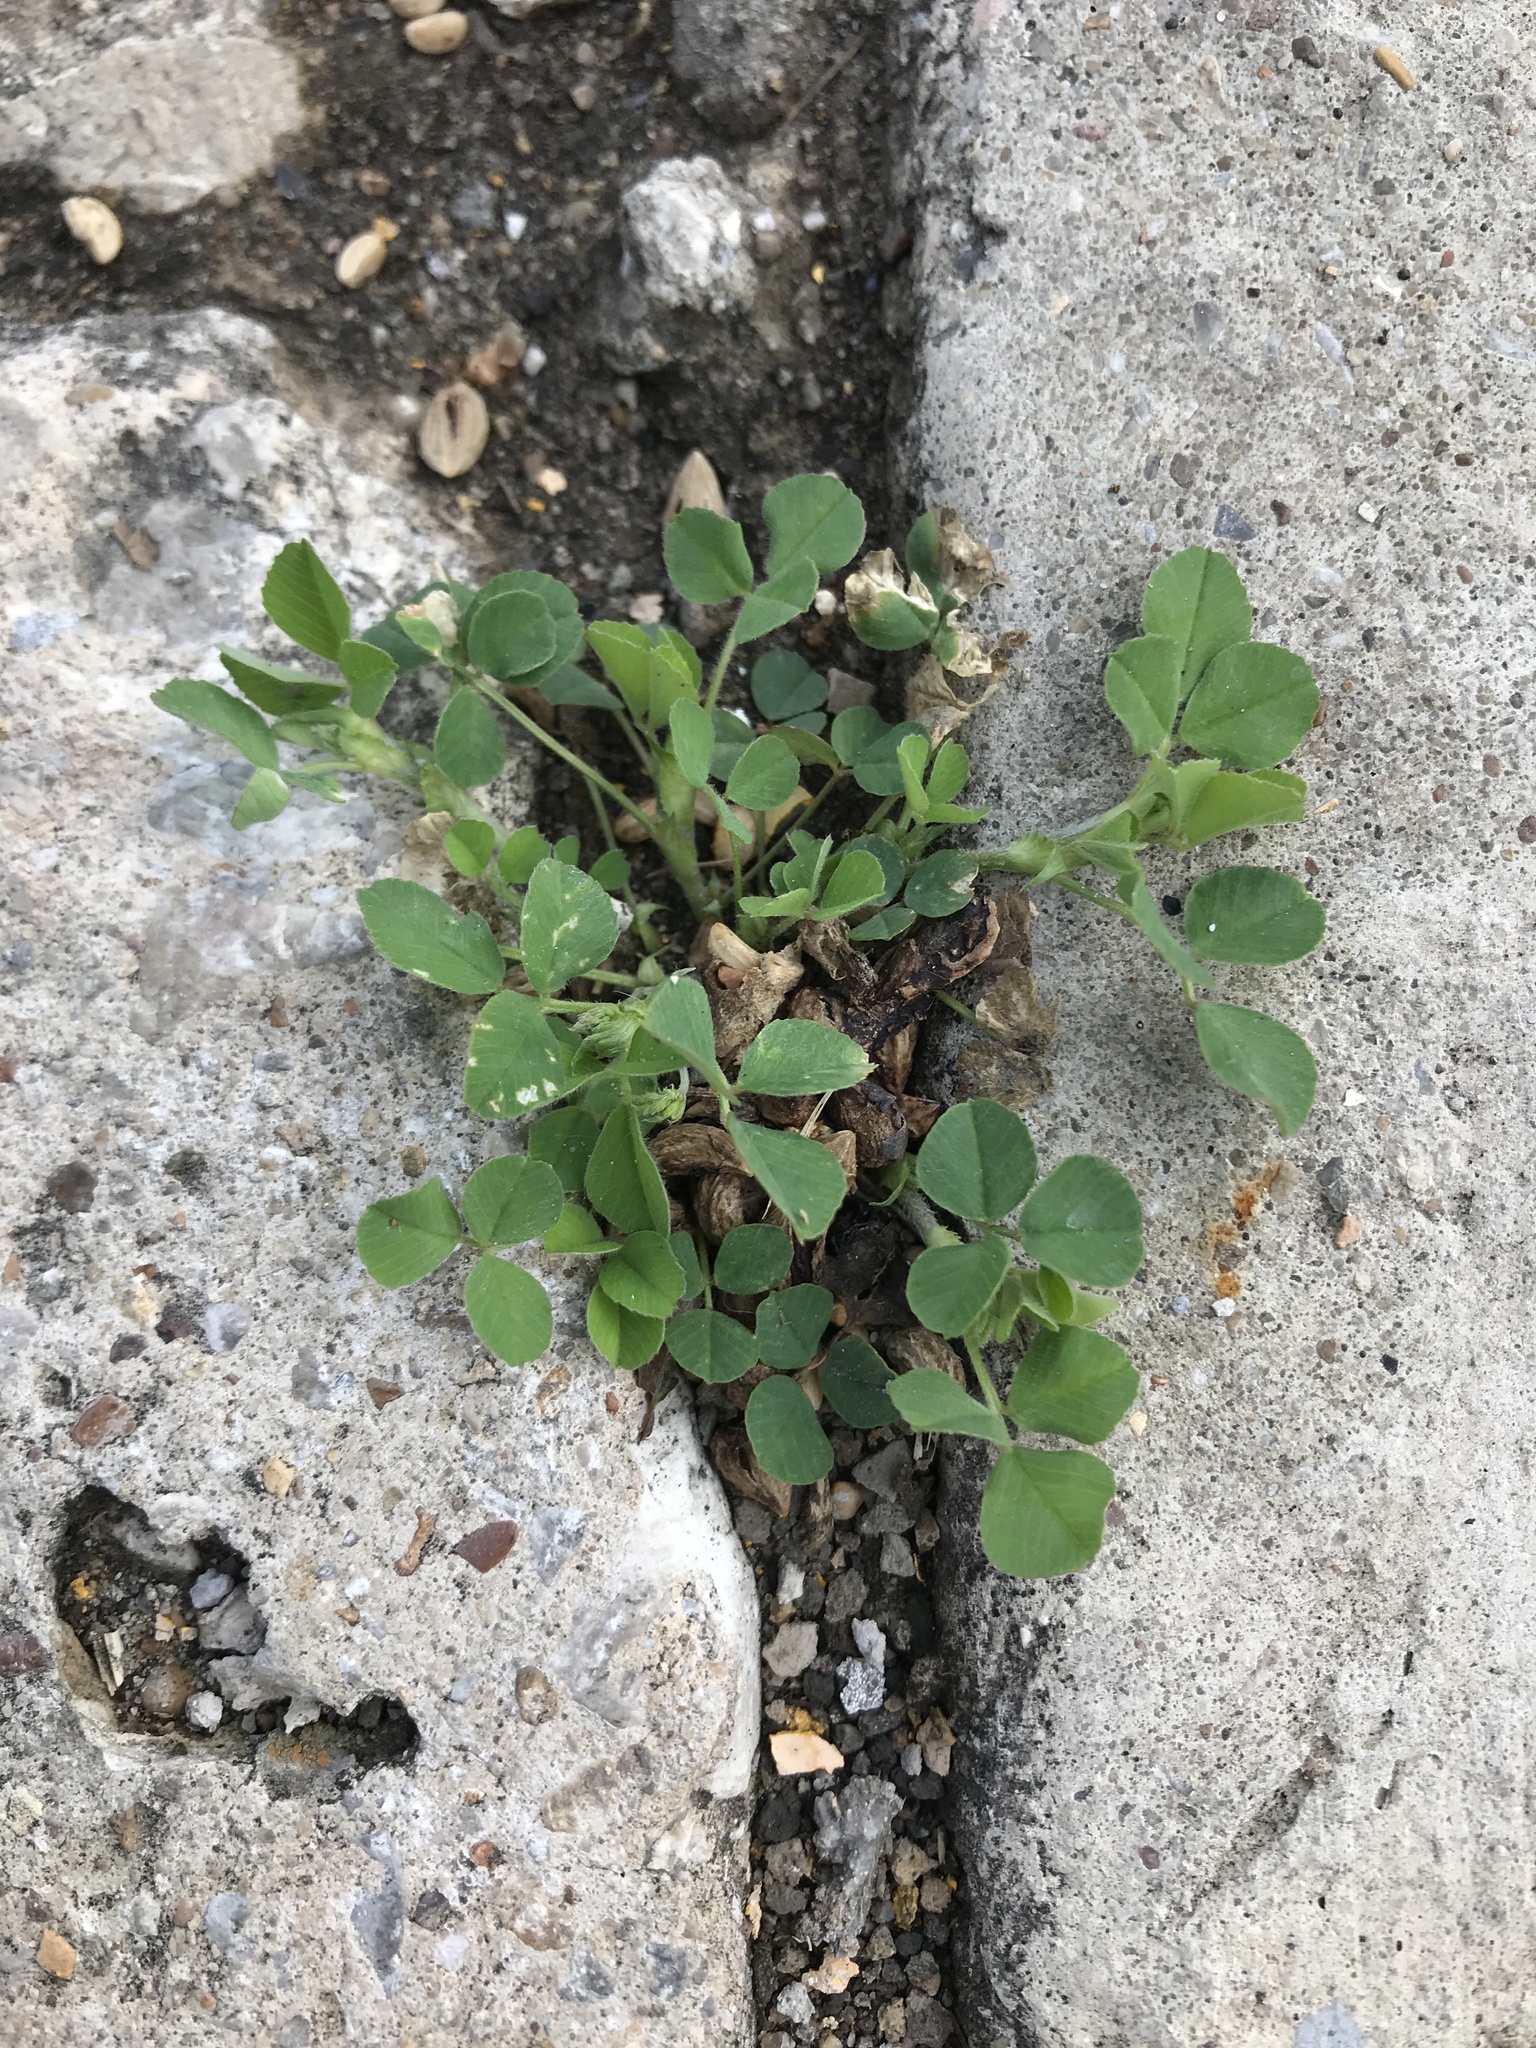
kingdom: Plantae
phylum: Tracheophyta
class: Magnoliopsida
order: Fabales
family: Fabaceae
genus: Trifolium
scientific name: Trifolium repens
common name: White clover
